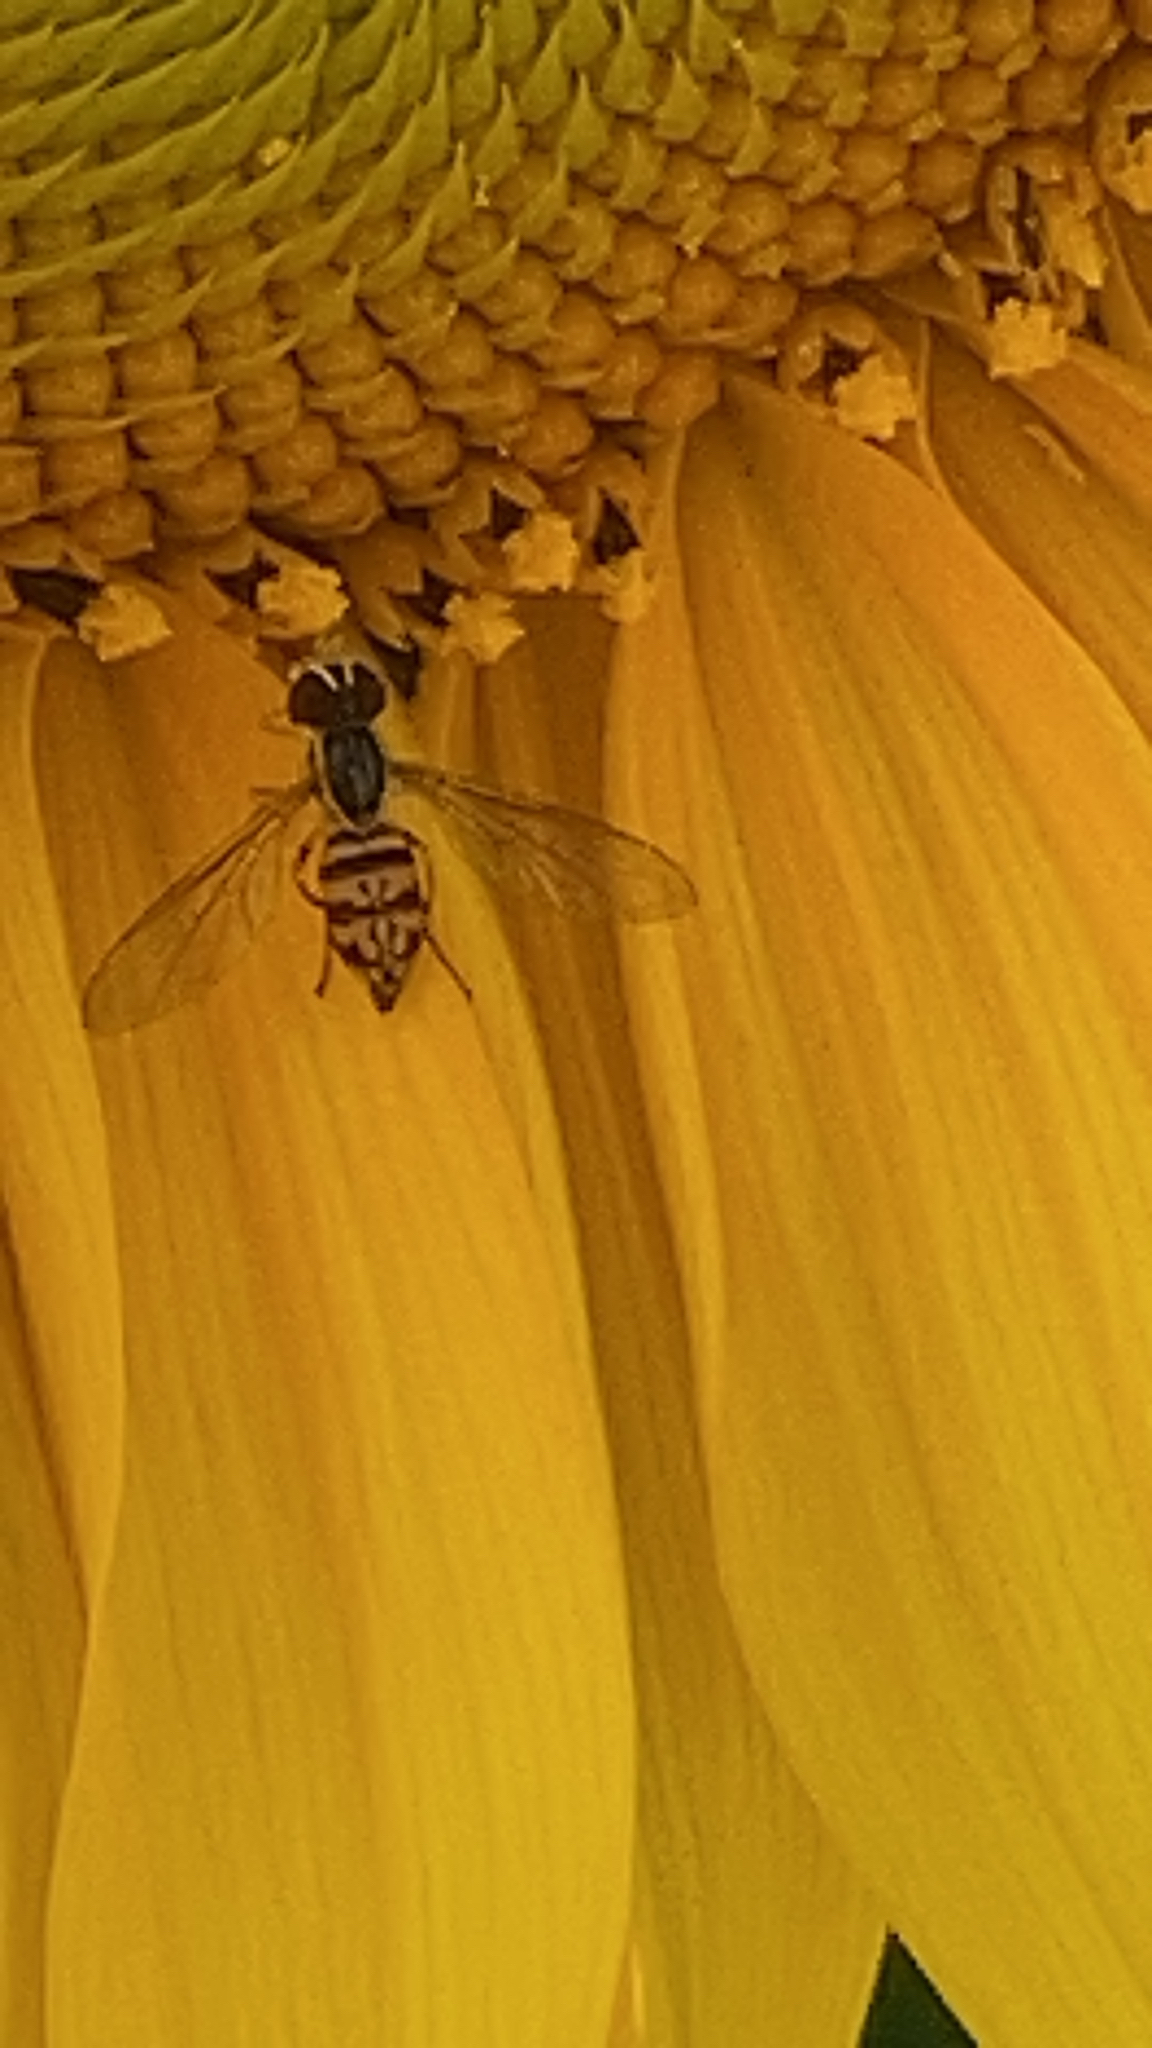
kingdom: Animalia
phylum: Arthropoda
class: Insecta
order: Diptera
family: Syrphidae
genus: Toxomerus
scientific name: Toxomerus geminatus
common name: Eastern calligrapher
